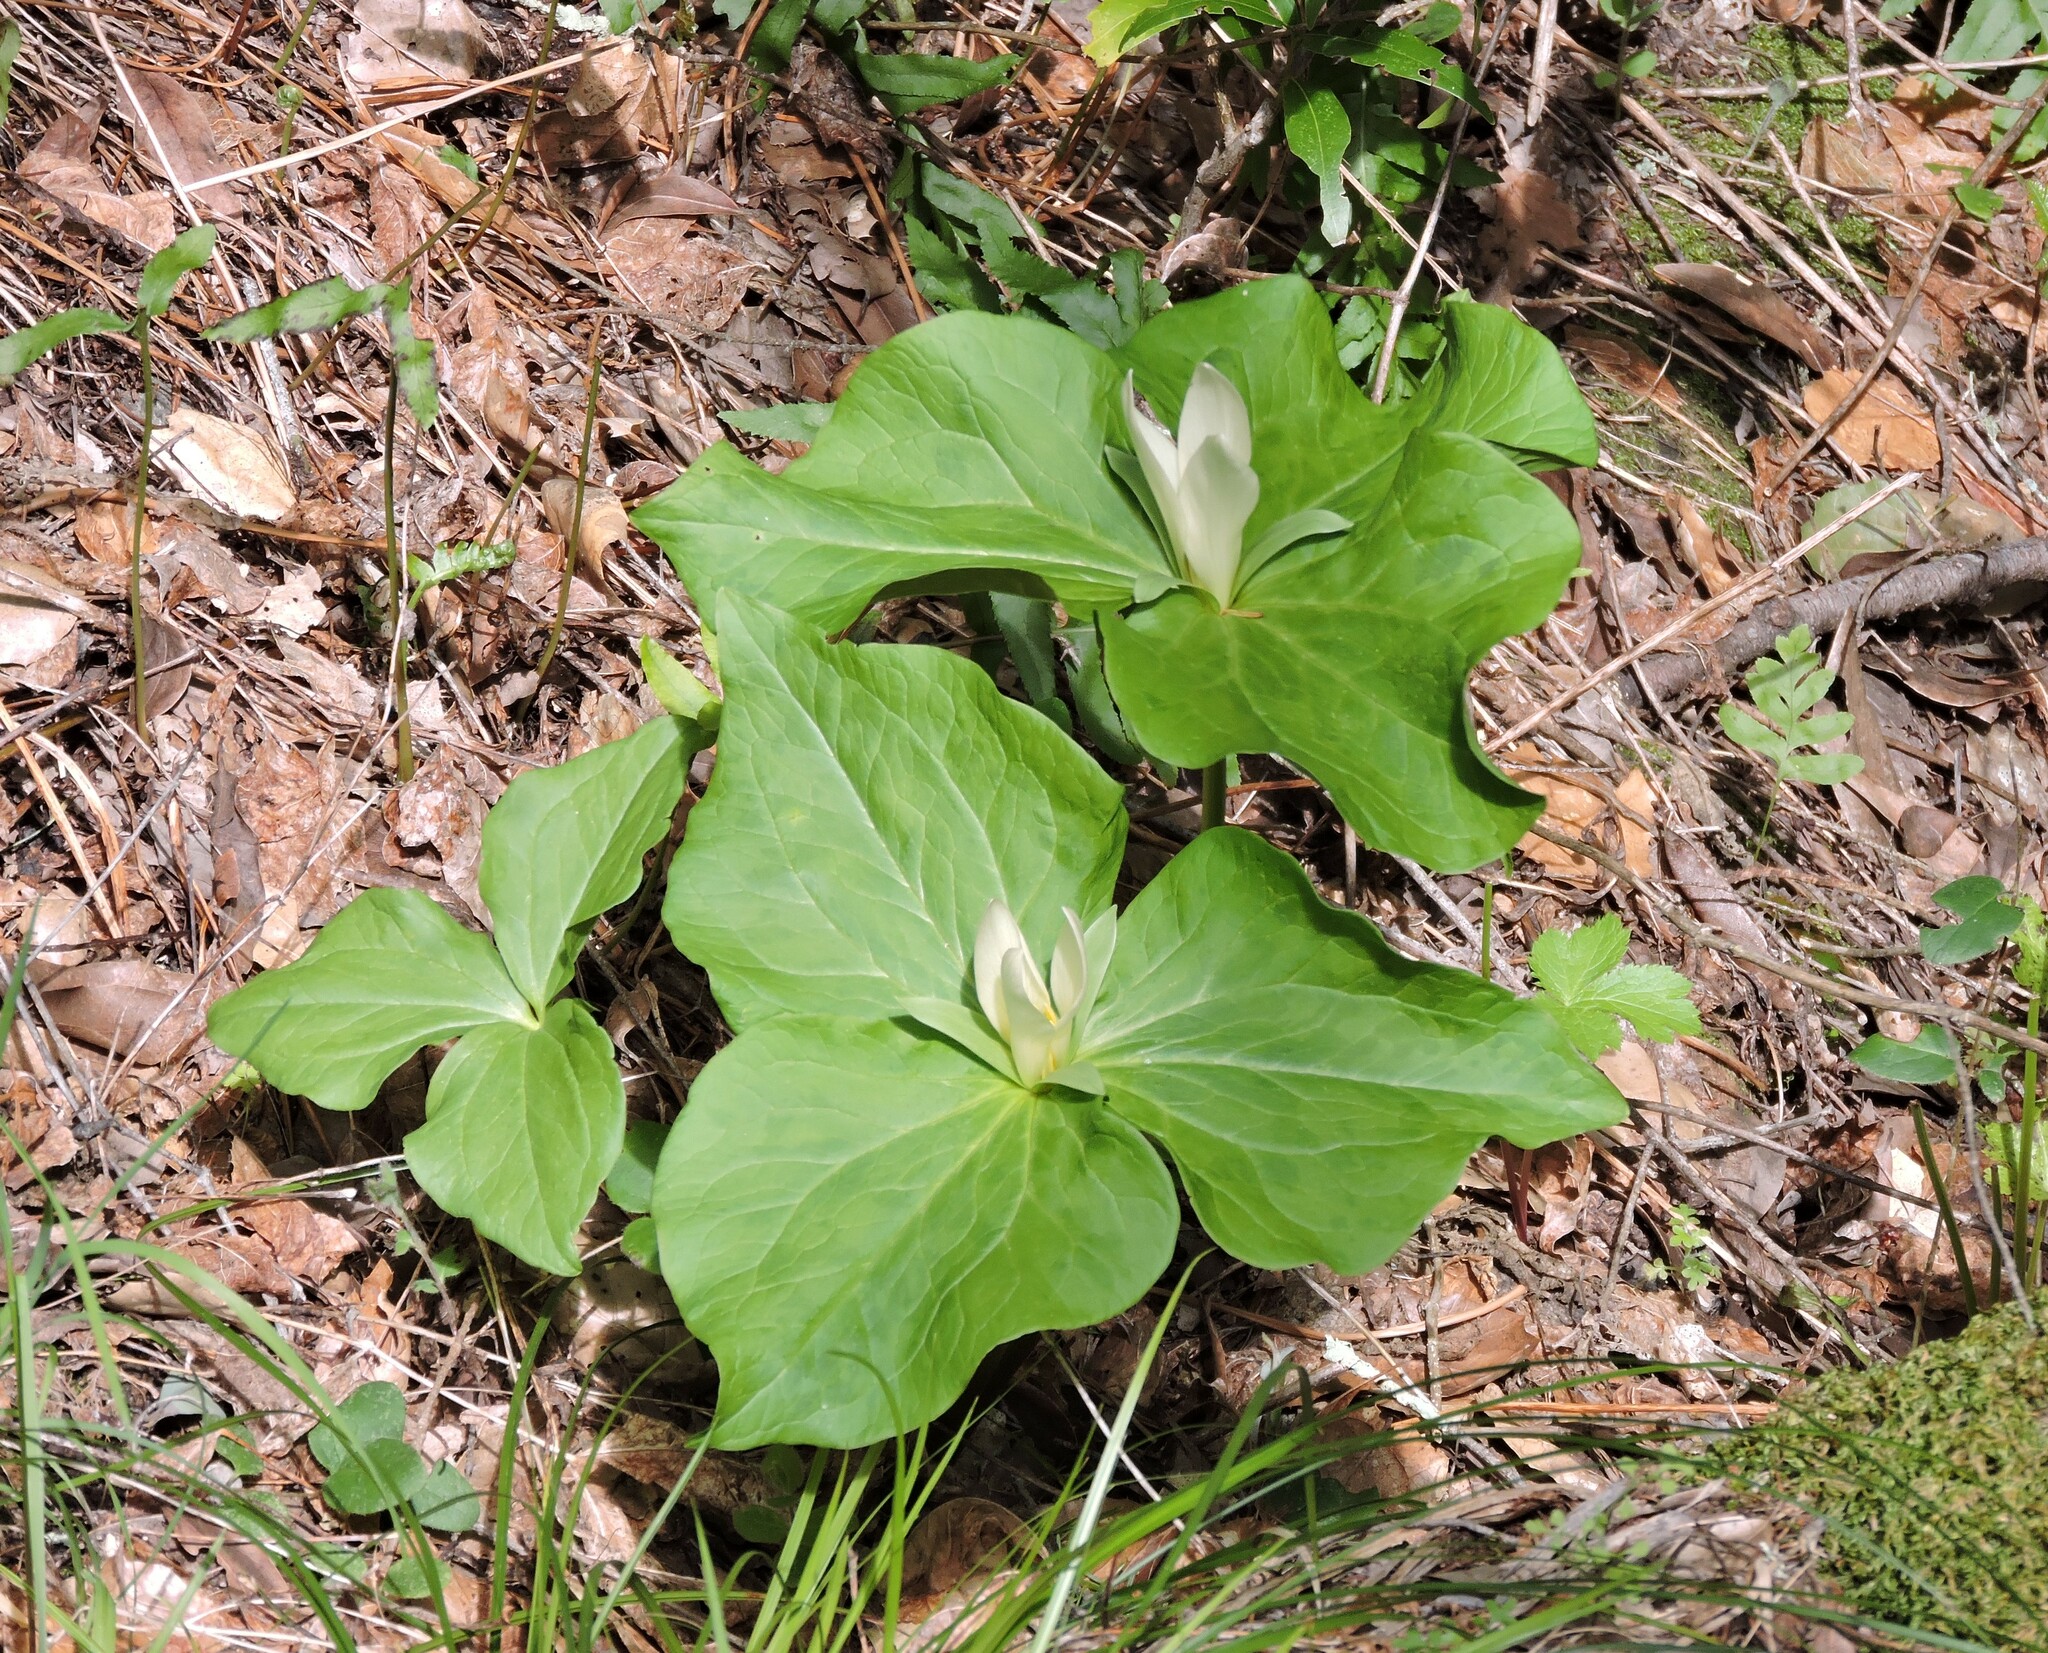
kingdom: Plantae
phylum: Tracheophyta
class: Liliopsida
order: Liliales
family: Melanthiaceae
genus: Trillium
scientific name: Trillium albidum
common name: Freeman's trillium
